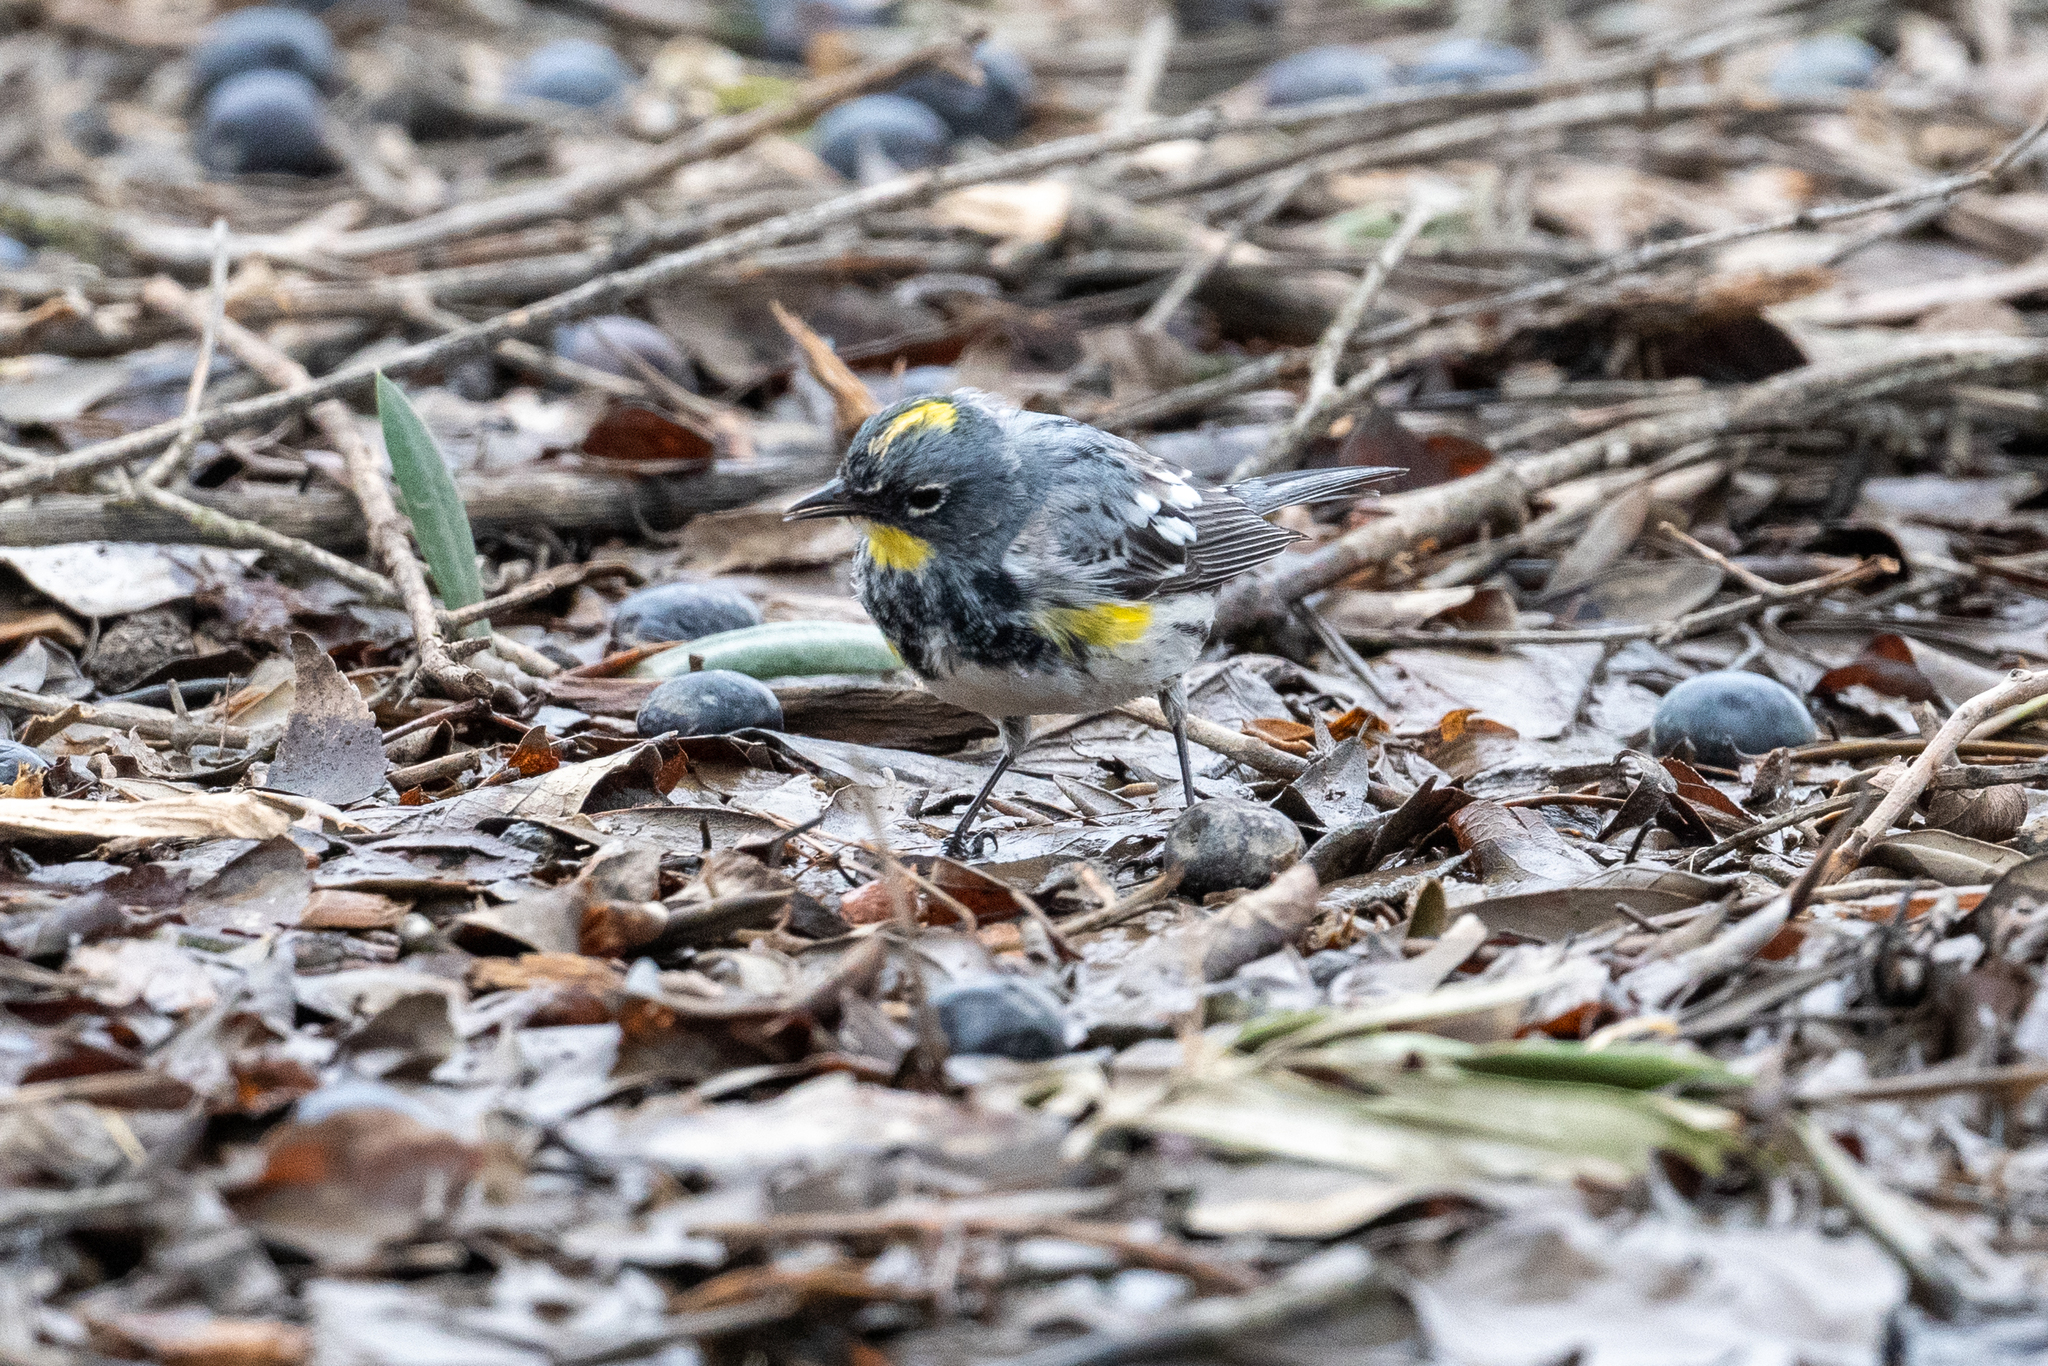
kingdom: Animalia
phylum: Chordata
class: Aves
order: Passeriformes
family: Parulidae
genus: Setophaga
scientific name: Setophaga coronata
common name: Myrtle warbler
